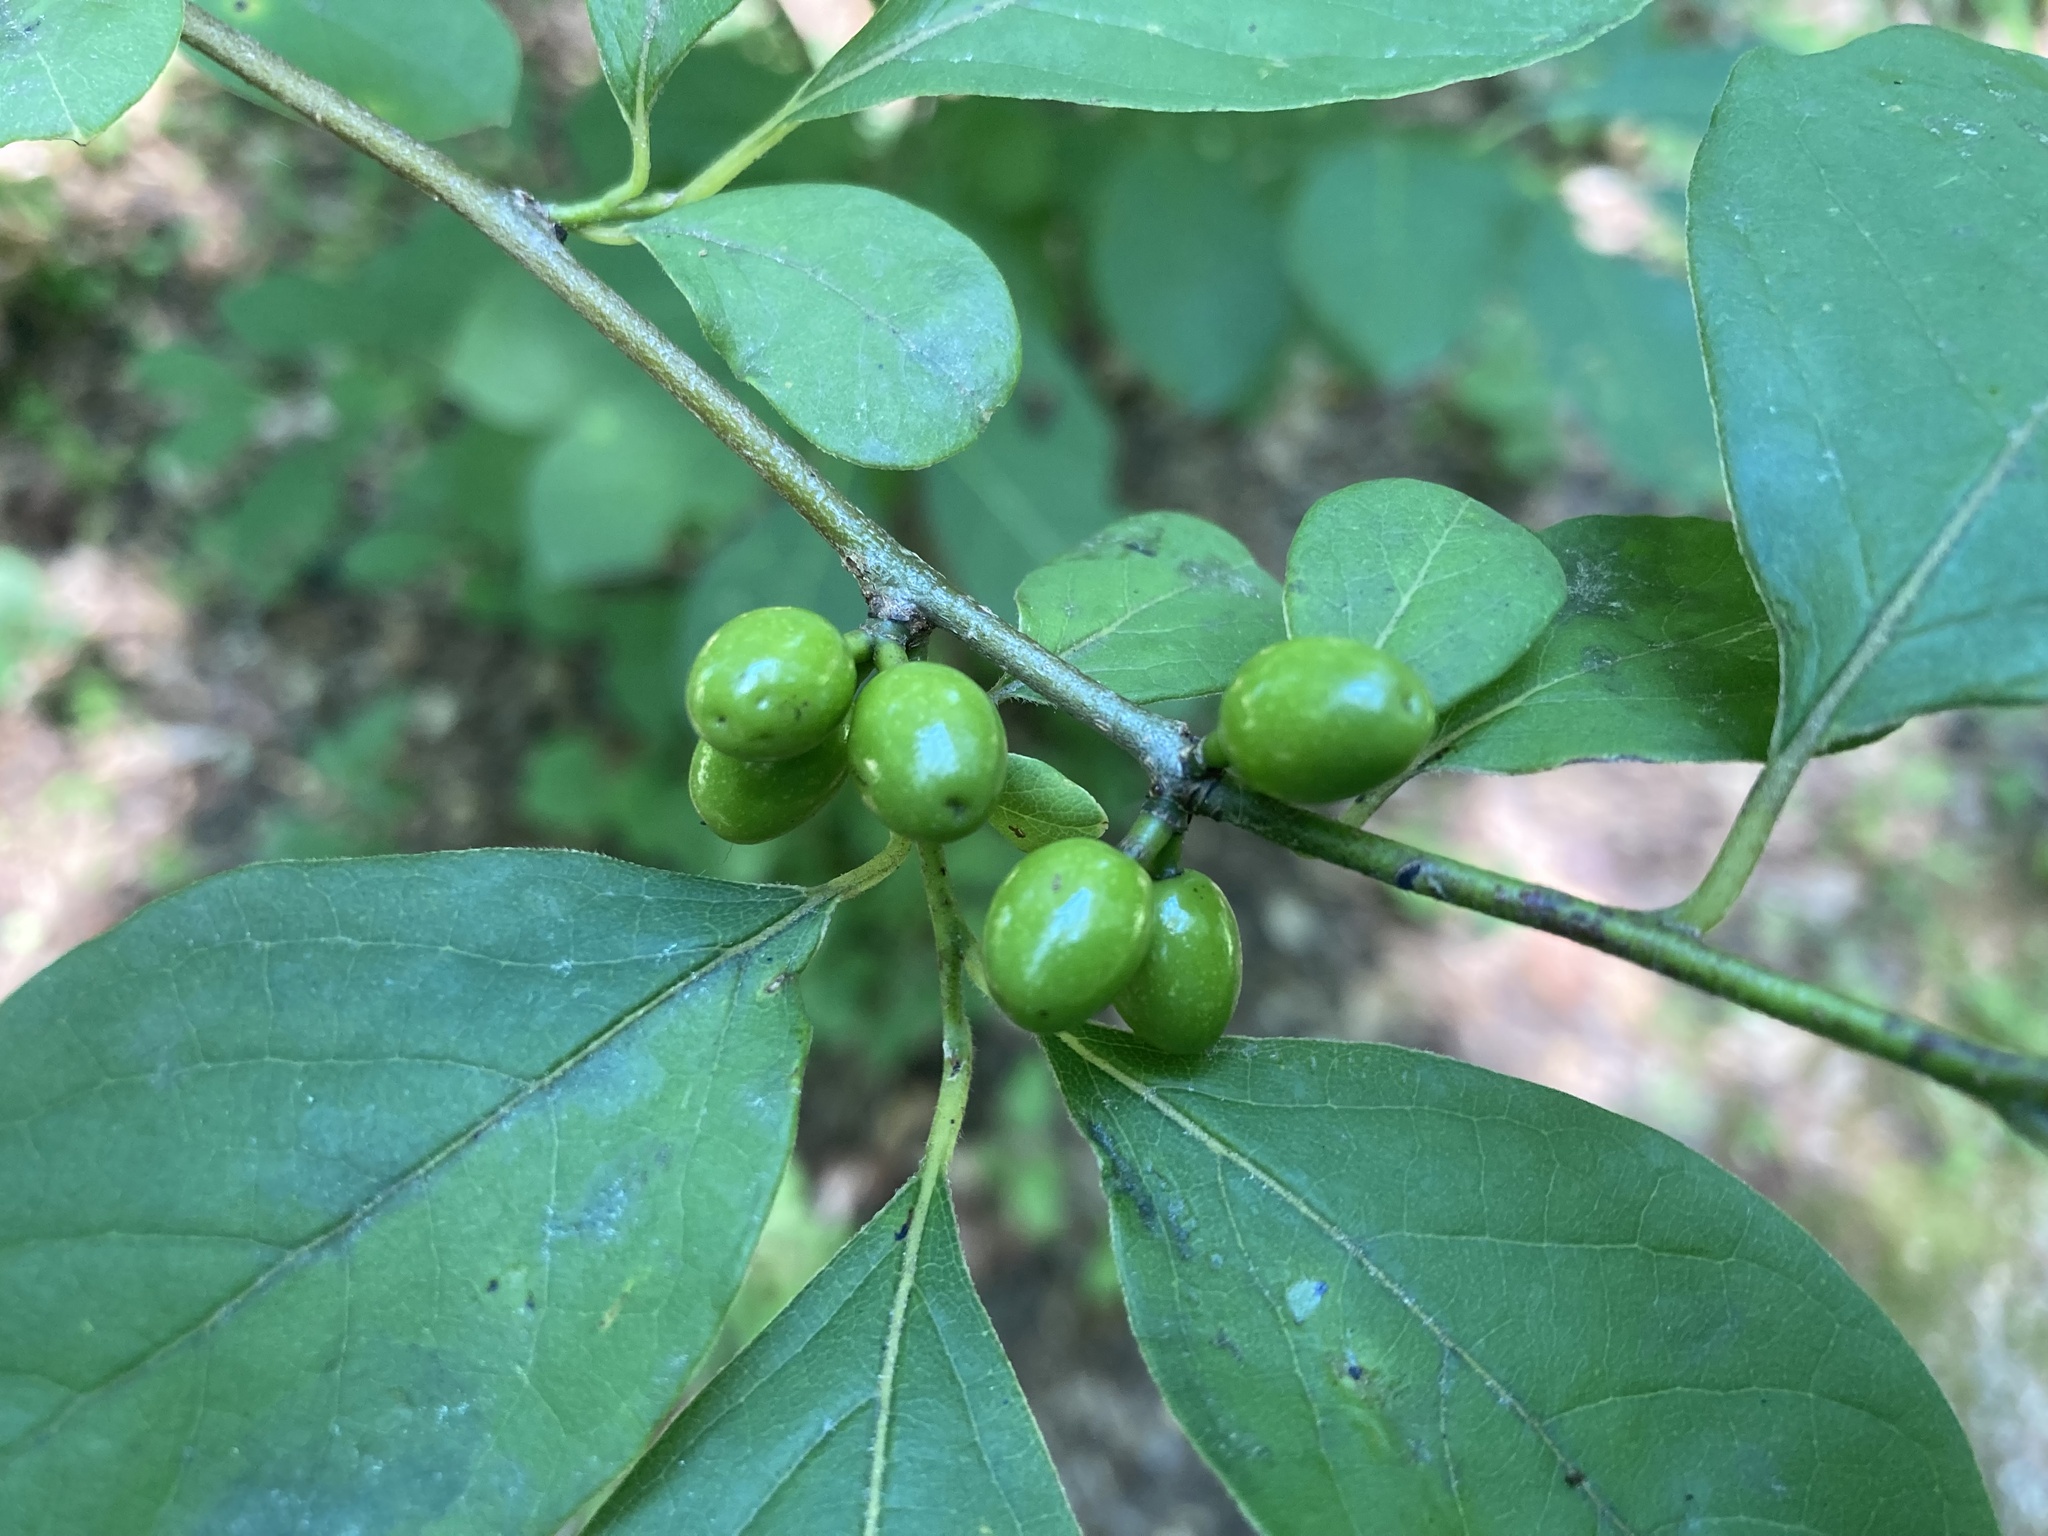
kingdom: Plantae
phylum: Tracheophyta
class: Magnoliopsida
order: Laurales
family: Lauraceae
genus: Lindera
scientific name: Lindera benzoin
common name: Spicebush
